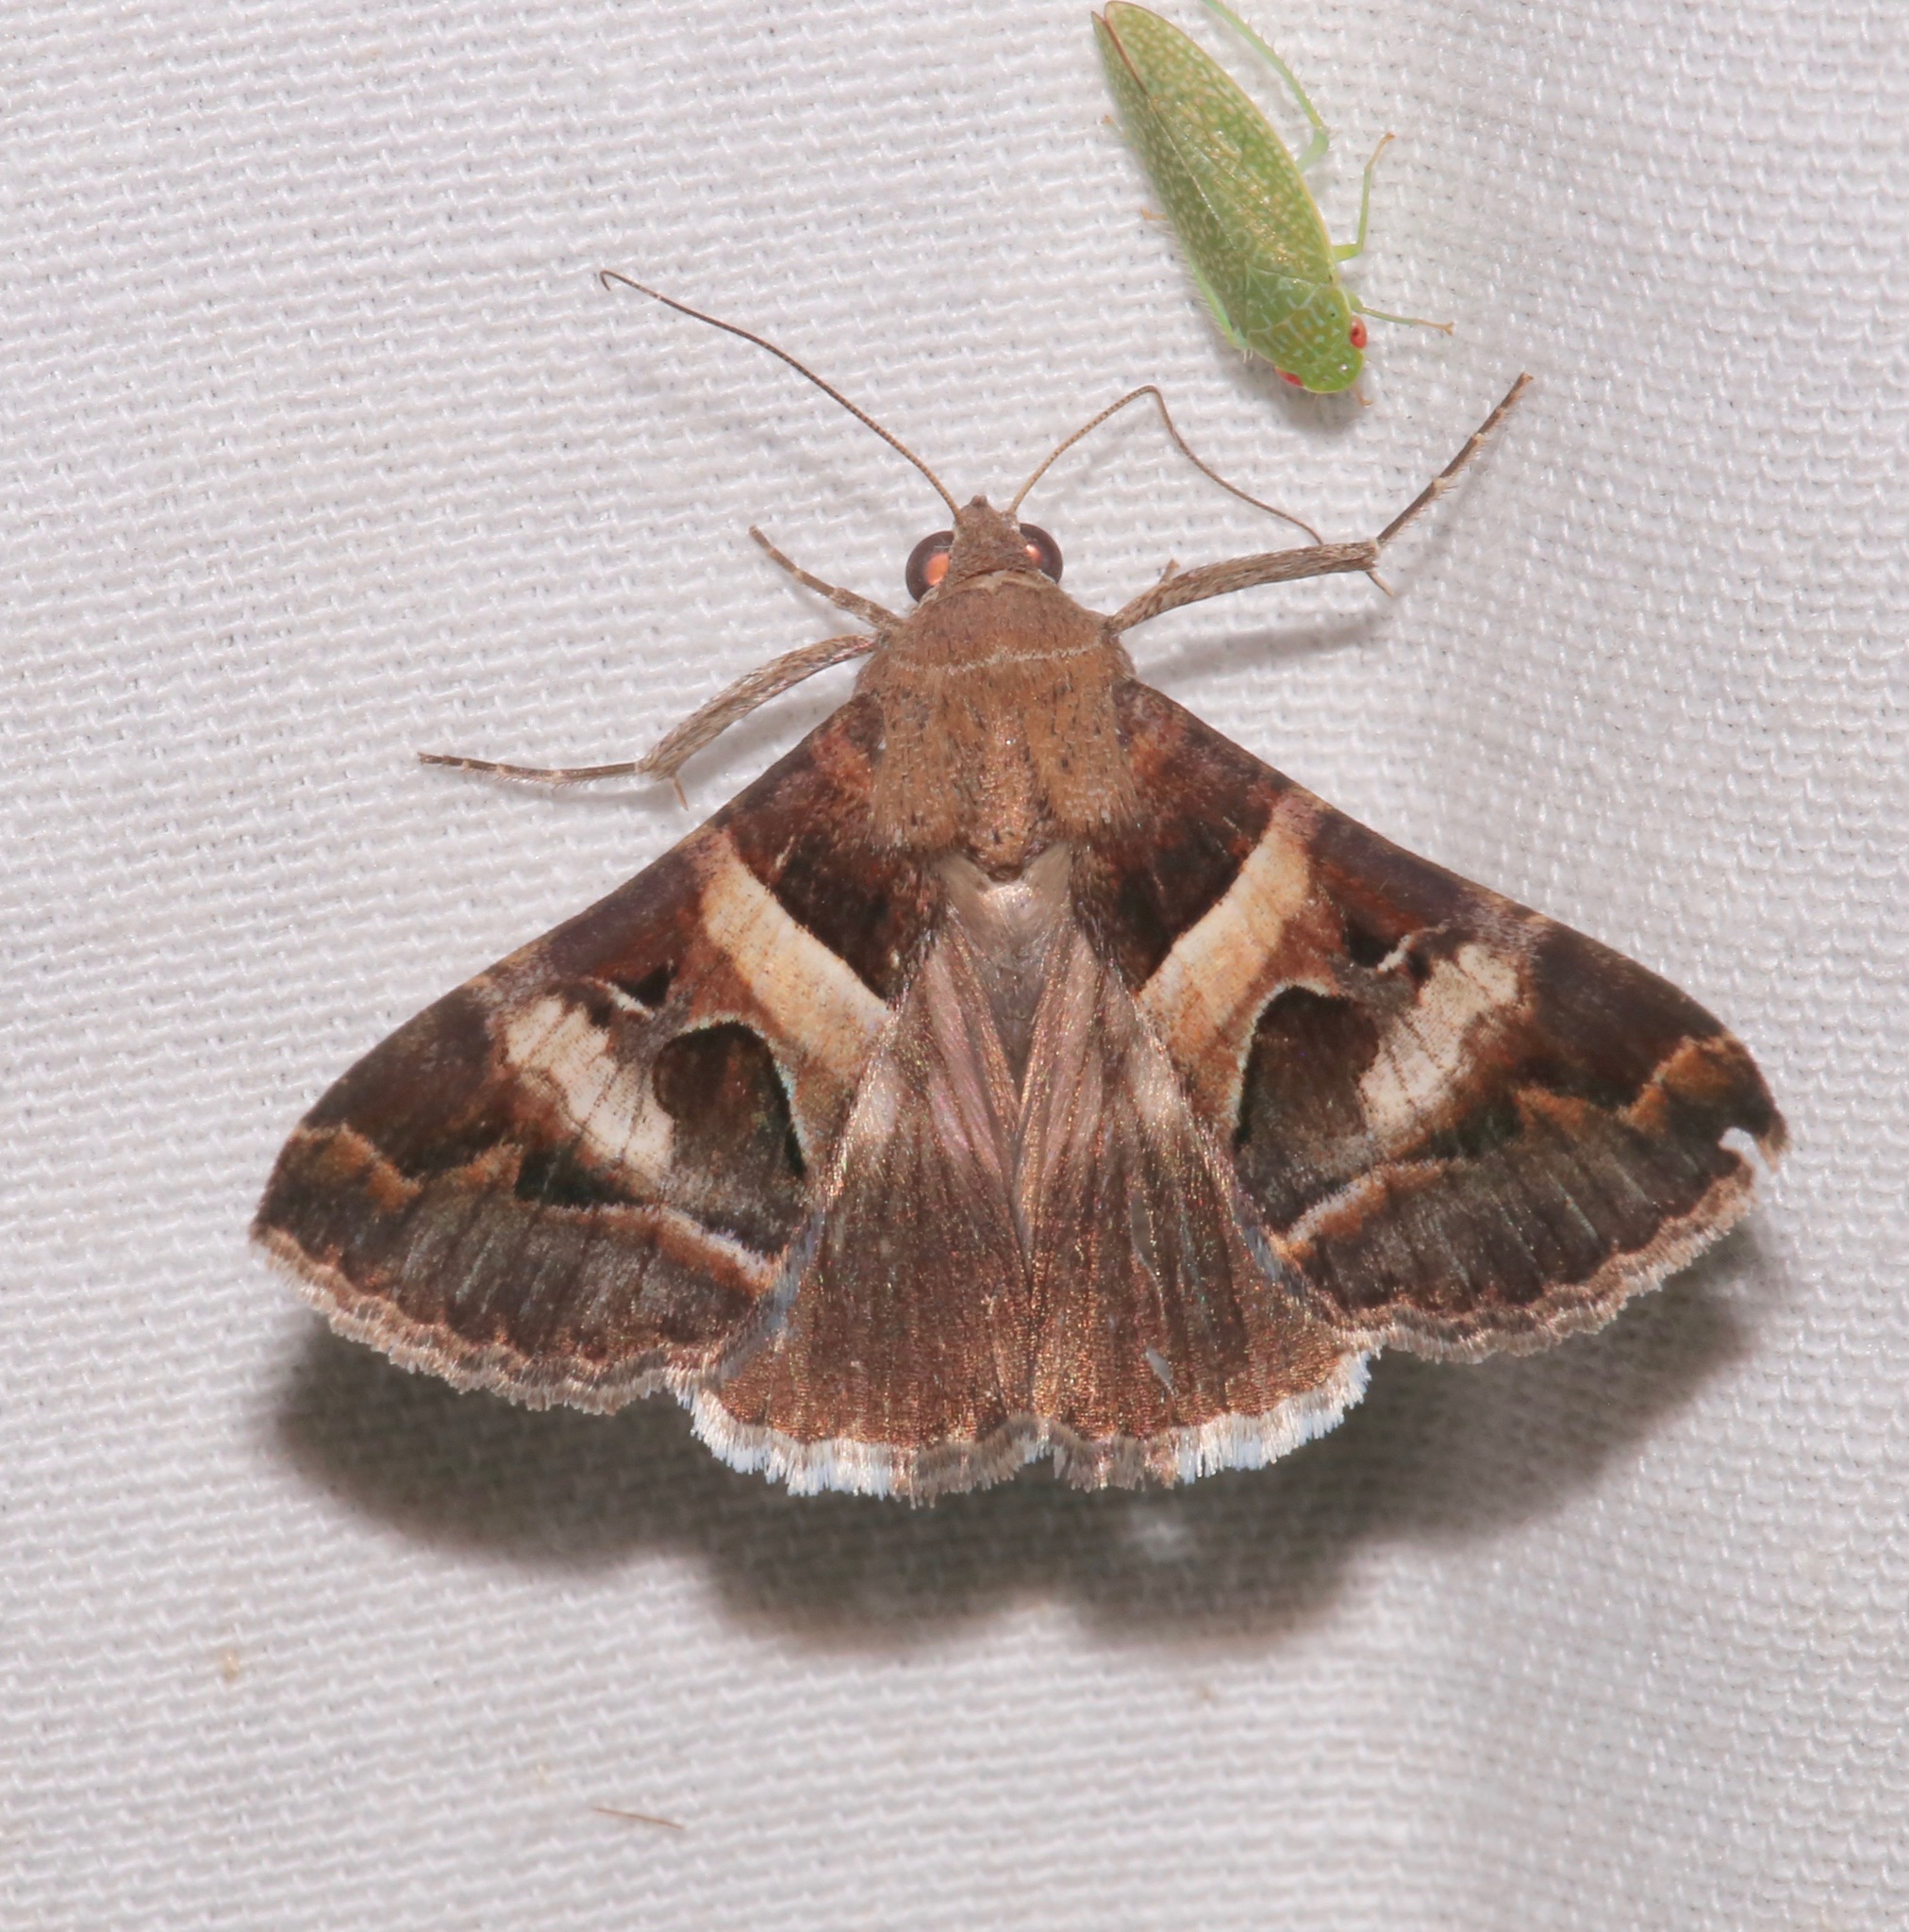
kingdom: Animalia
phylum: Arthropoda
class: Insecta
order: Lepidoptera
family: Erebidae
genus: Melipotis
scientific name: Melipotis perpendicularis
